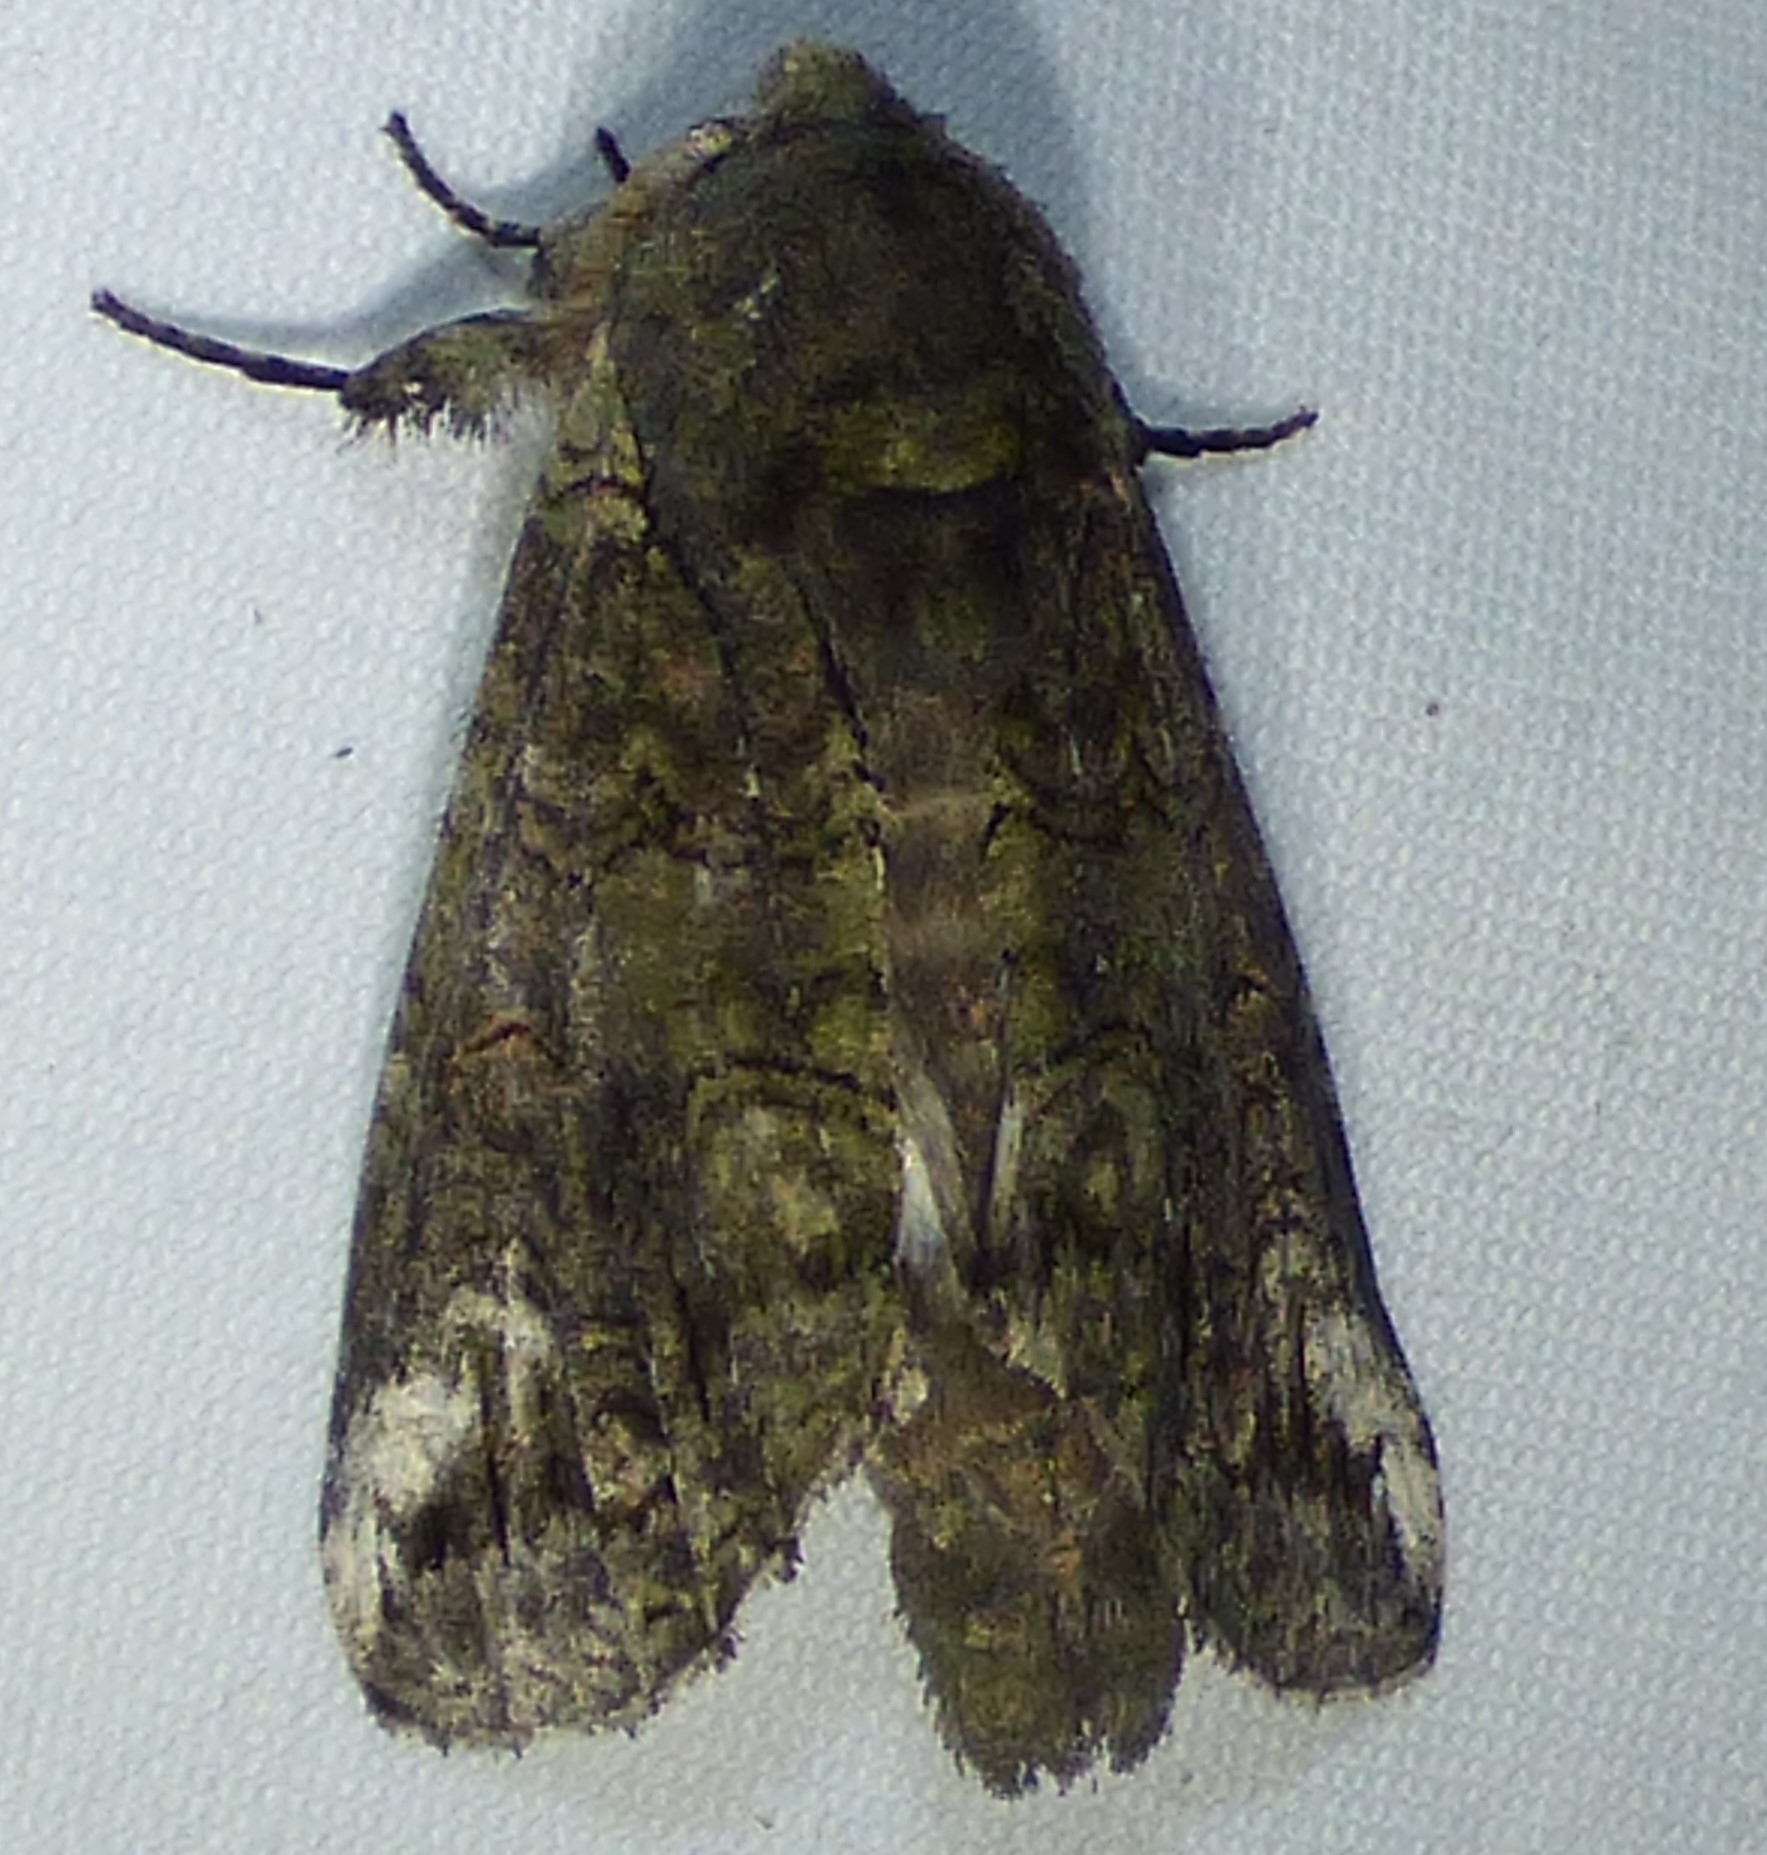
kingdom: Animalia
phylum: Arthropoda
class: Insecta
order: Lepidoptera
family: Notodontidae
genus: Heterocampa
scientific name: Heterocampa obliqua
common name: Oblique heterocampa
